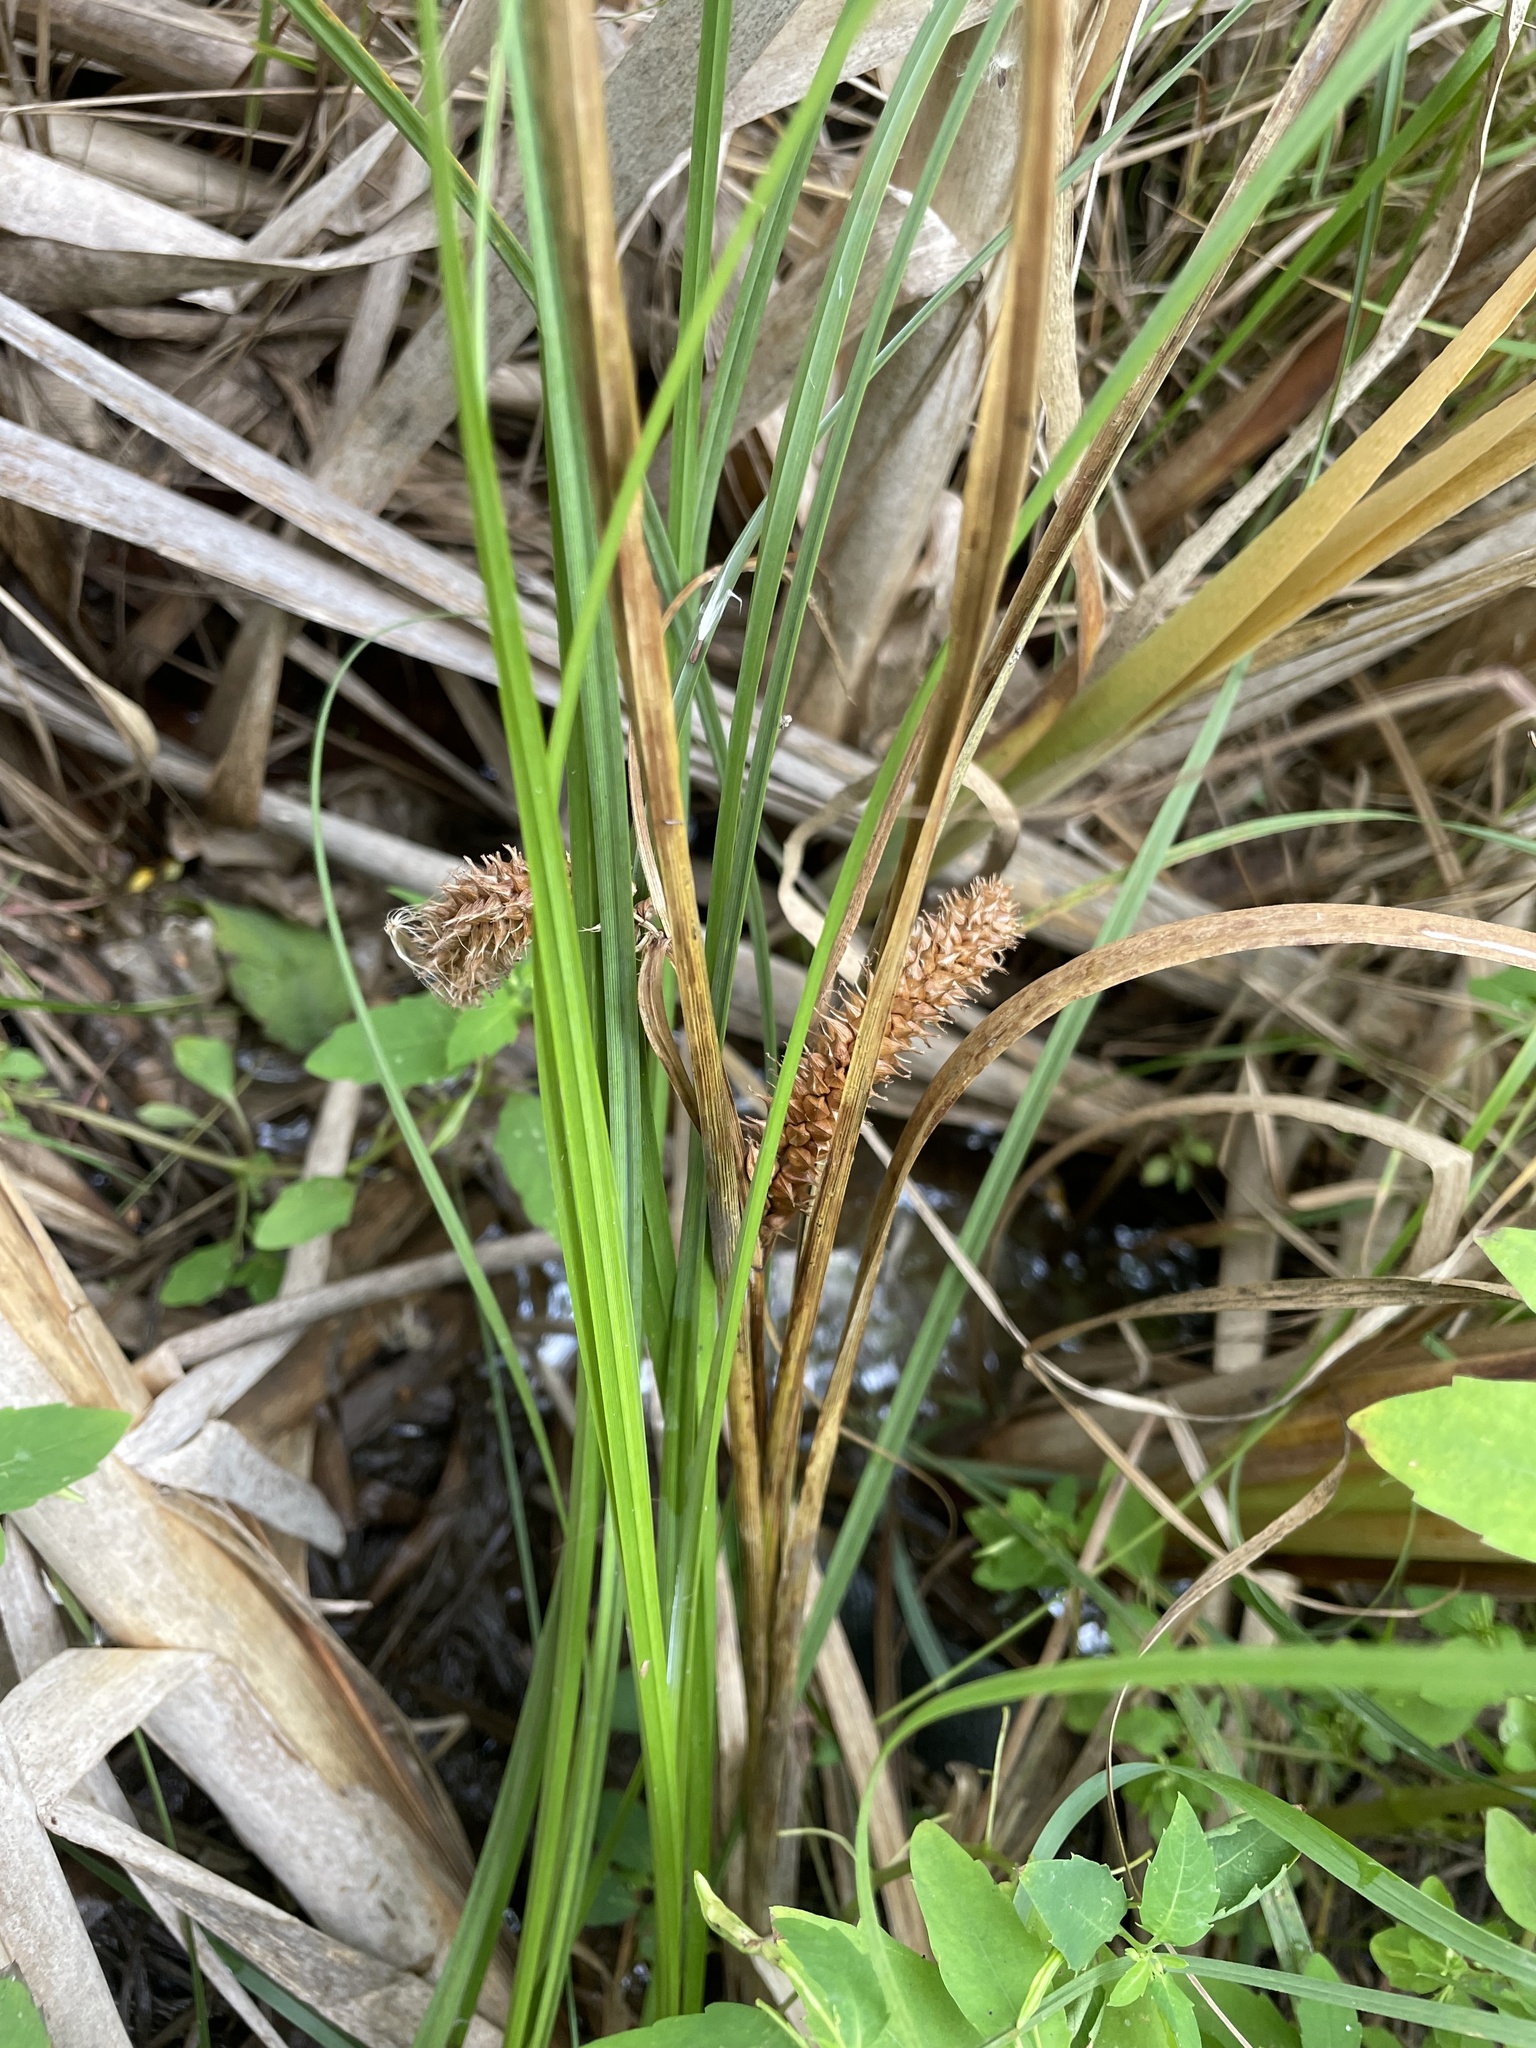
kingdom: Plantae
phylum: Tracheophyta
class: Liliopsida
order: Poales
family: Cyperaceae
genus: Carex
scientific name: Carex utriculata
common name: Beaked sedge
